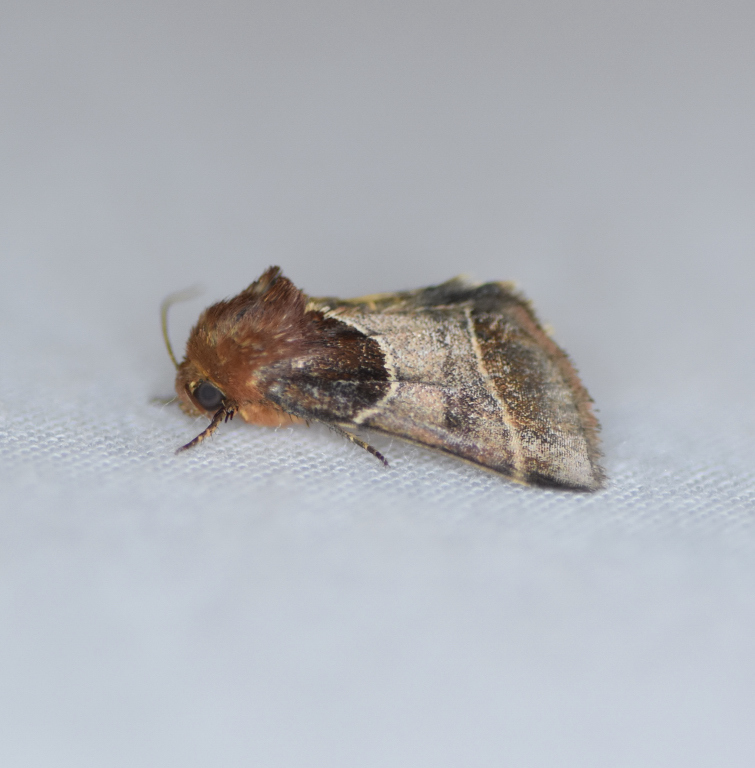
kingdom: Animalia
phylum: Arthropoda
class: Insecta
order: Lepidoptera
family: Noctuidae
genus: Schinia
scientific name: Schinia arcigera
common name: Arcigera flower moth
